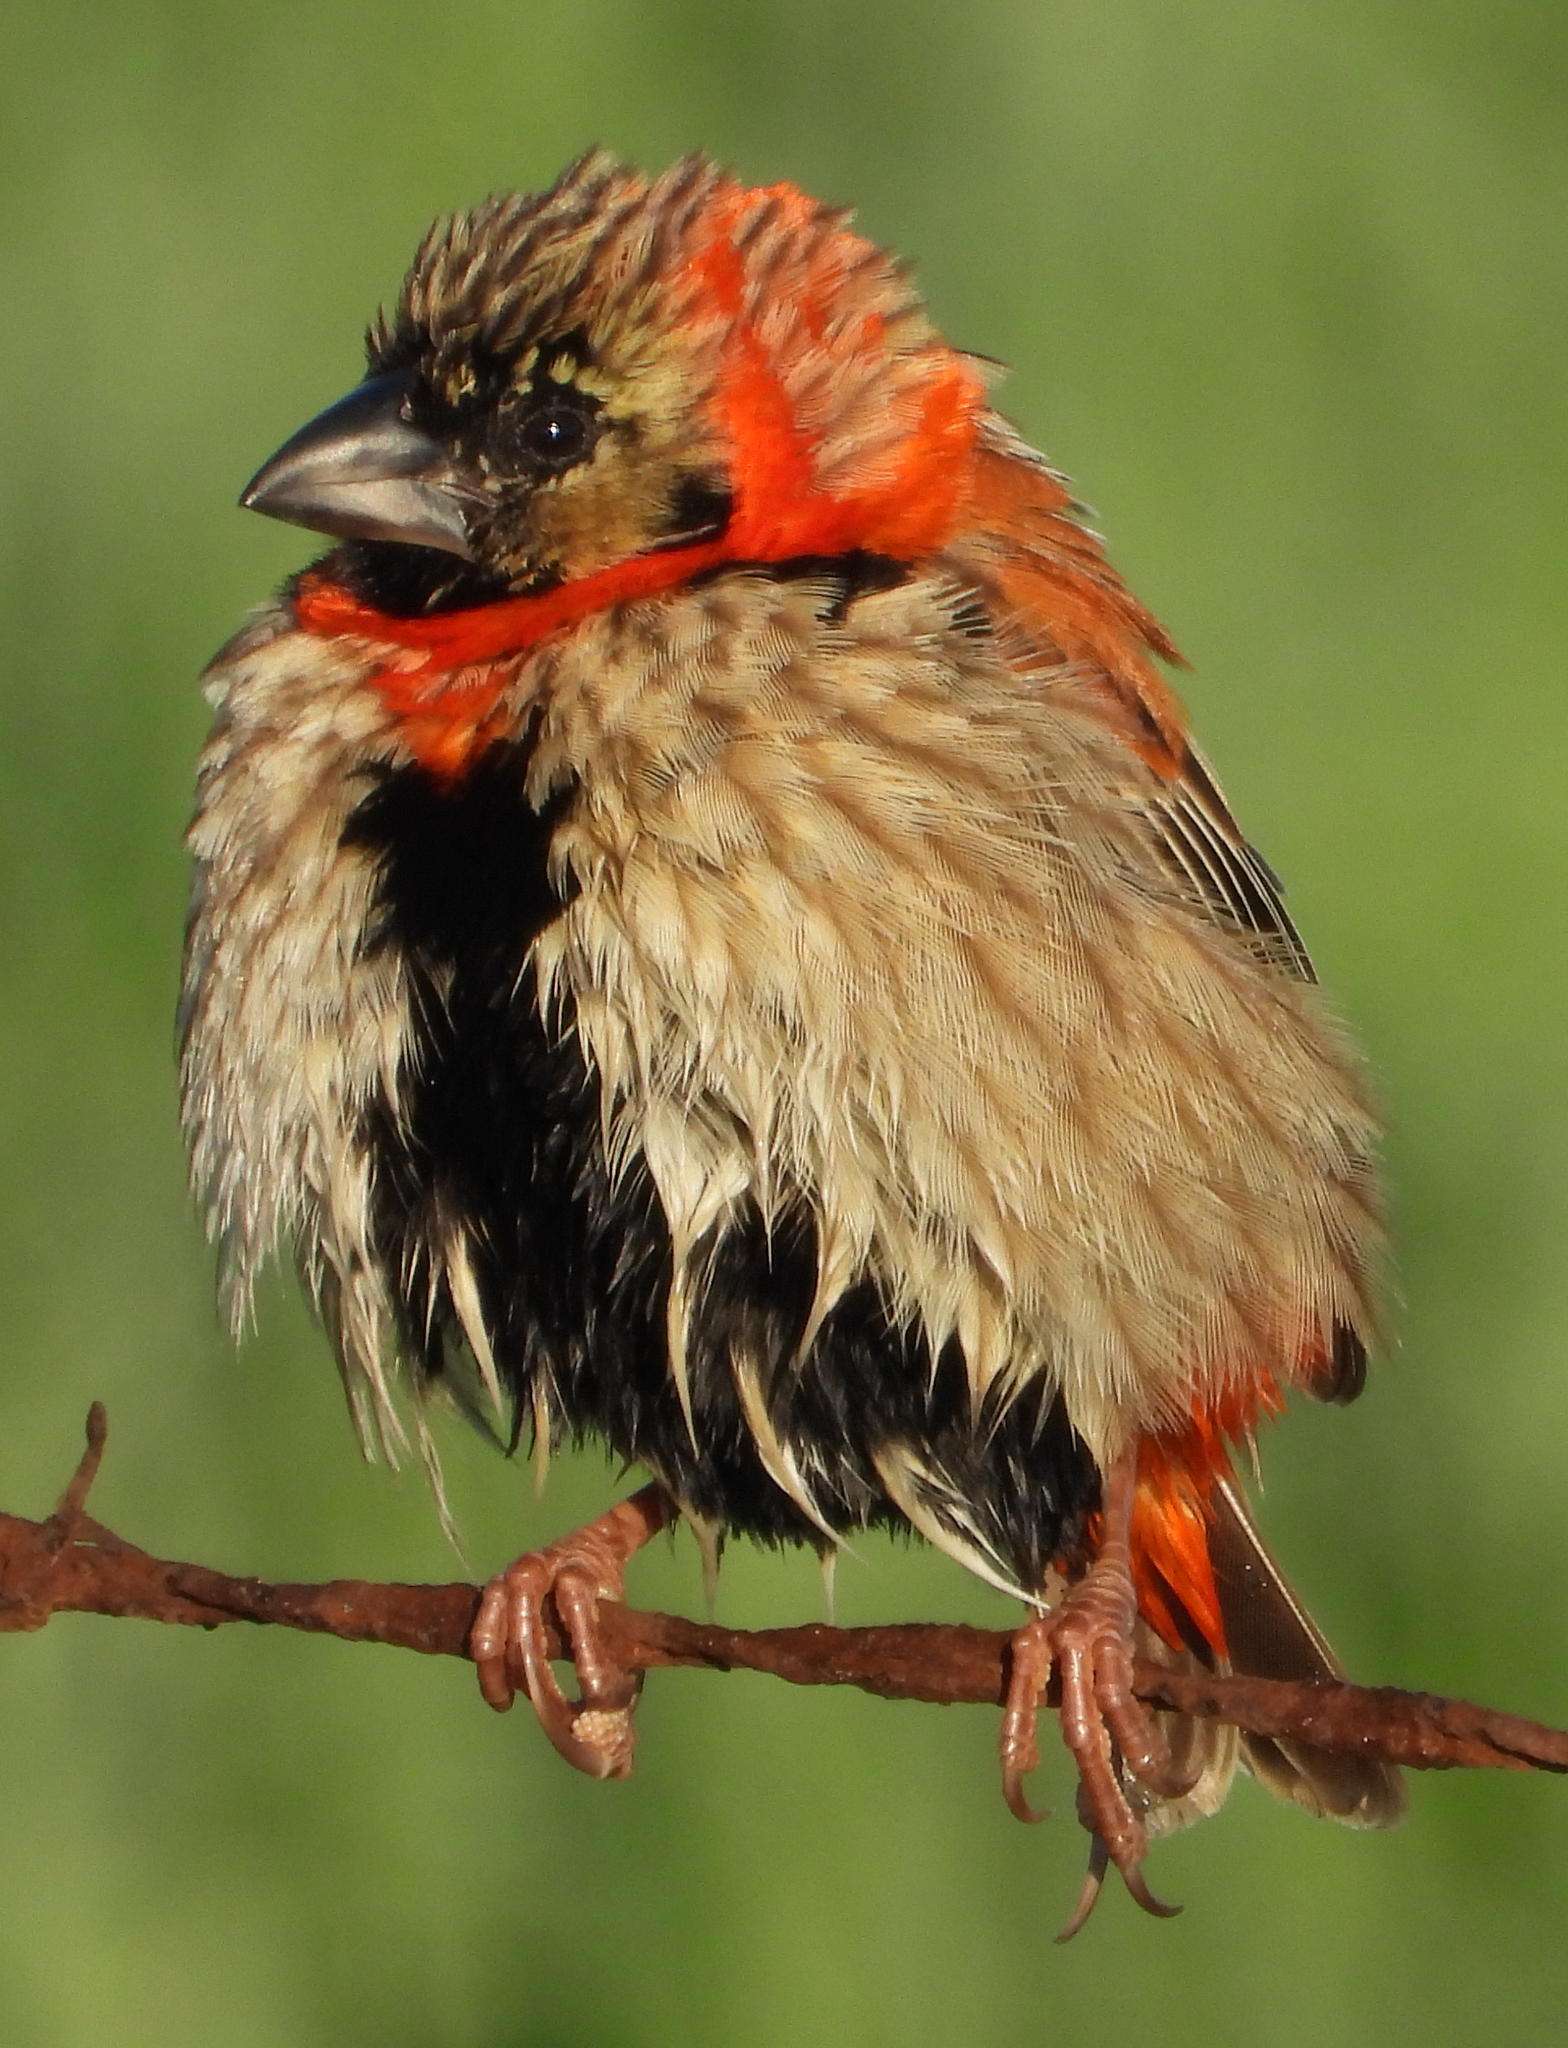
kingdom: Animalia
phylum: Chordata
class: Aves
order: Passeriformes
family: Ploceidae
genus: Euplectes
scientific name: Euplectes orix
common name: Southern red bishop
